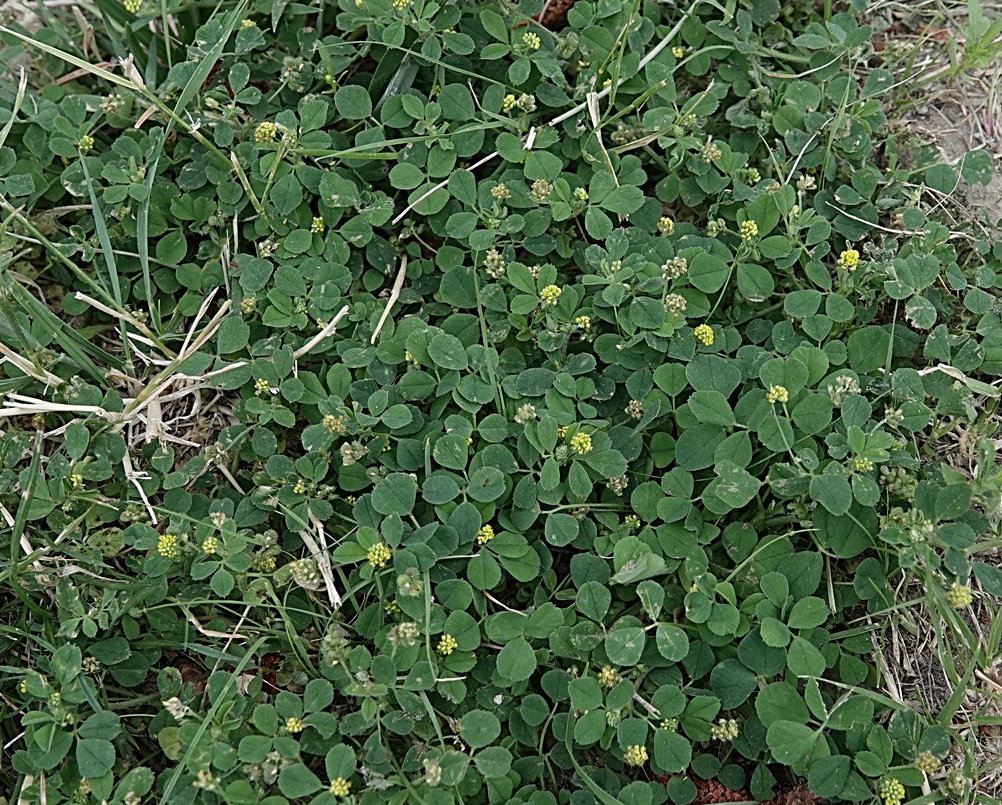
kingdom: Plantae
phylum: Tracheophyta
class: Magnoliopsida
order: Fabales
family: Fabaceae
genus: Medicago
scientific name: Medicago lupulina
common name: Black medick
